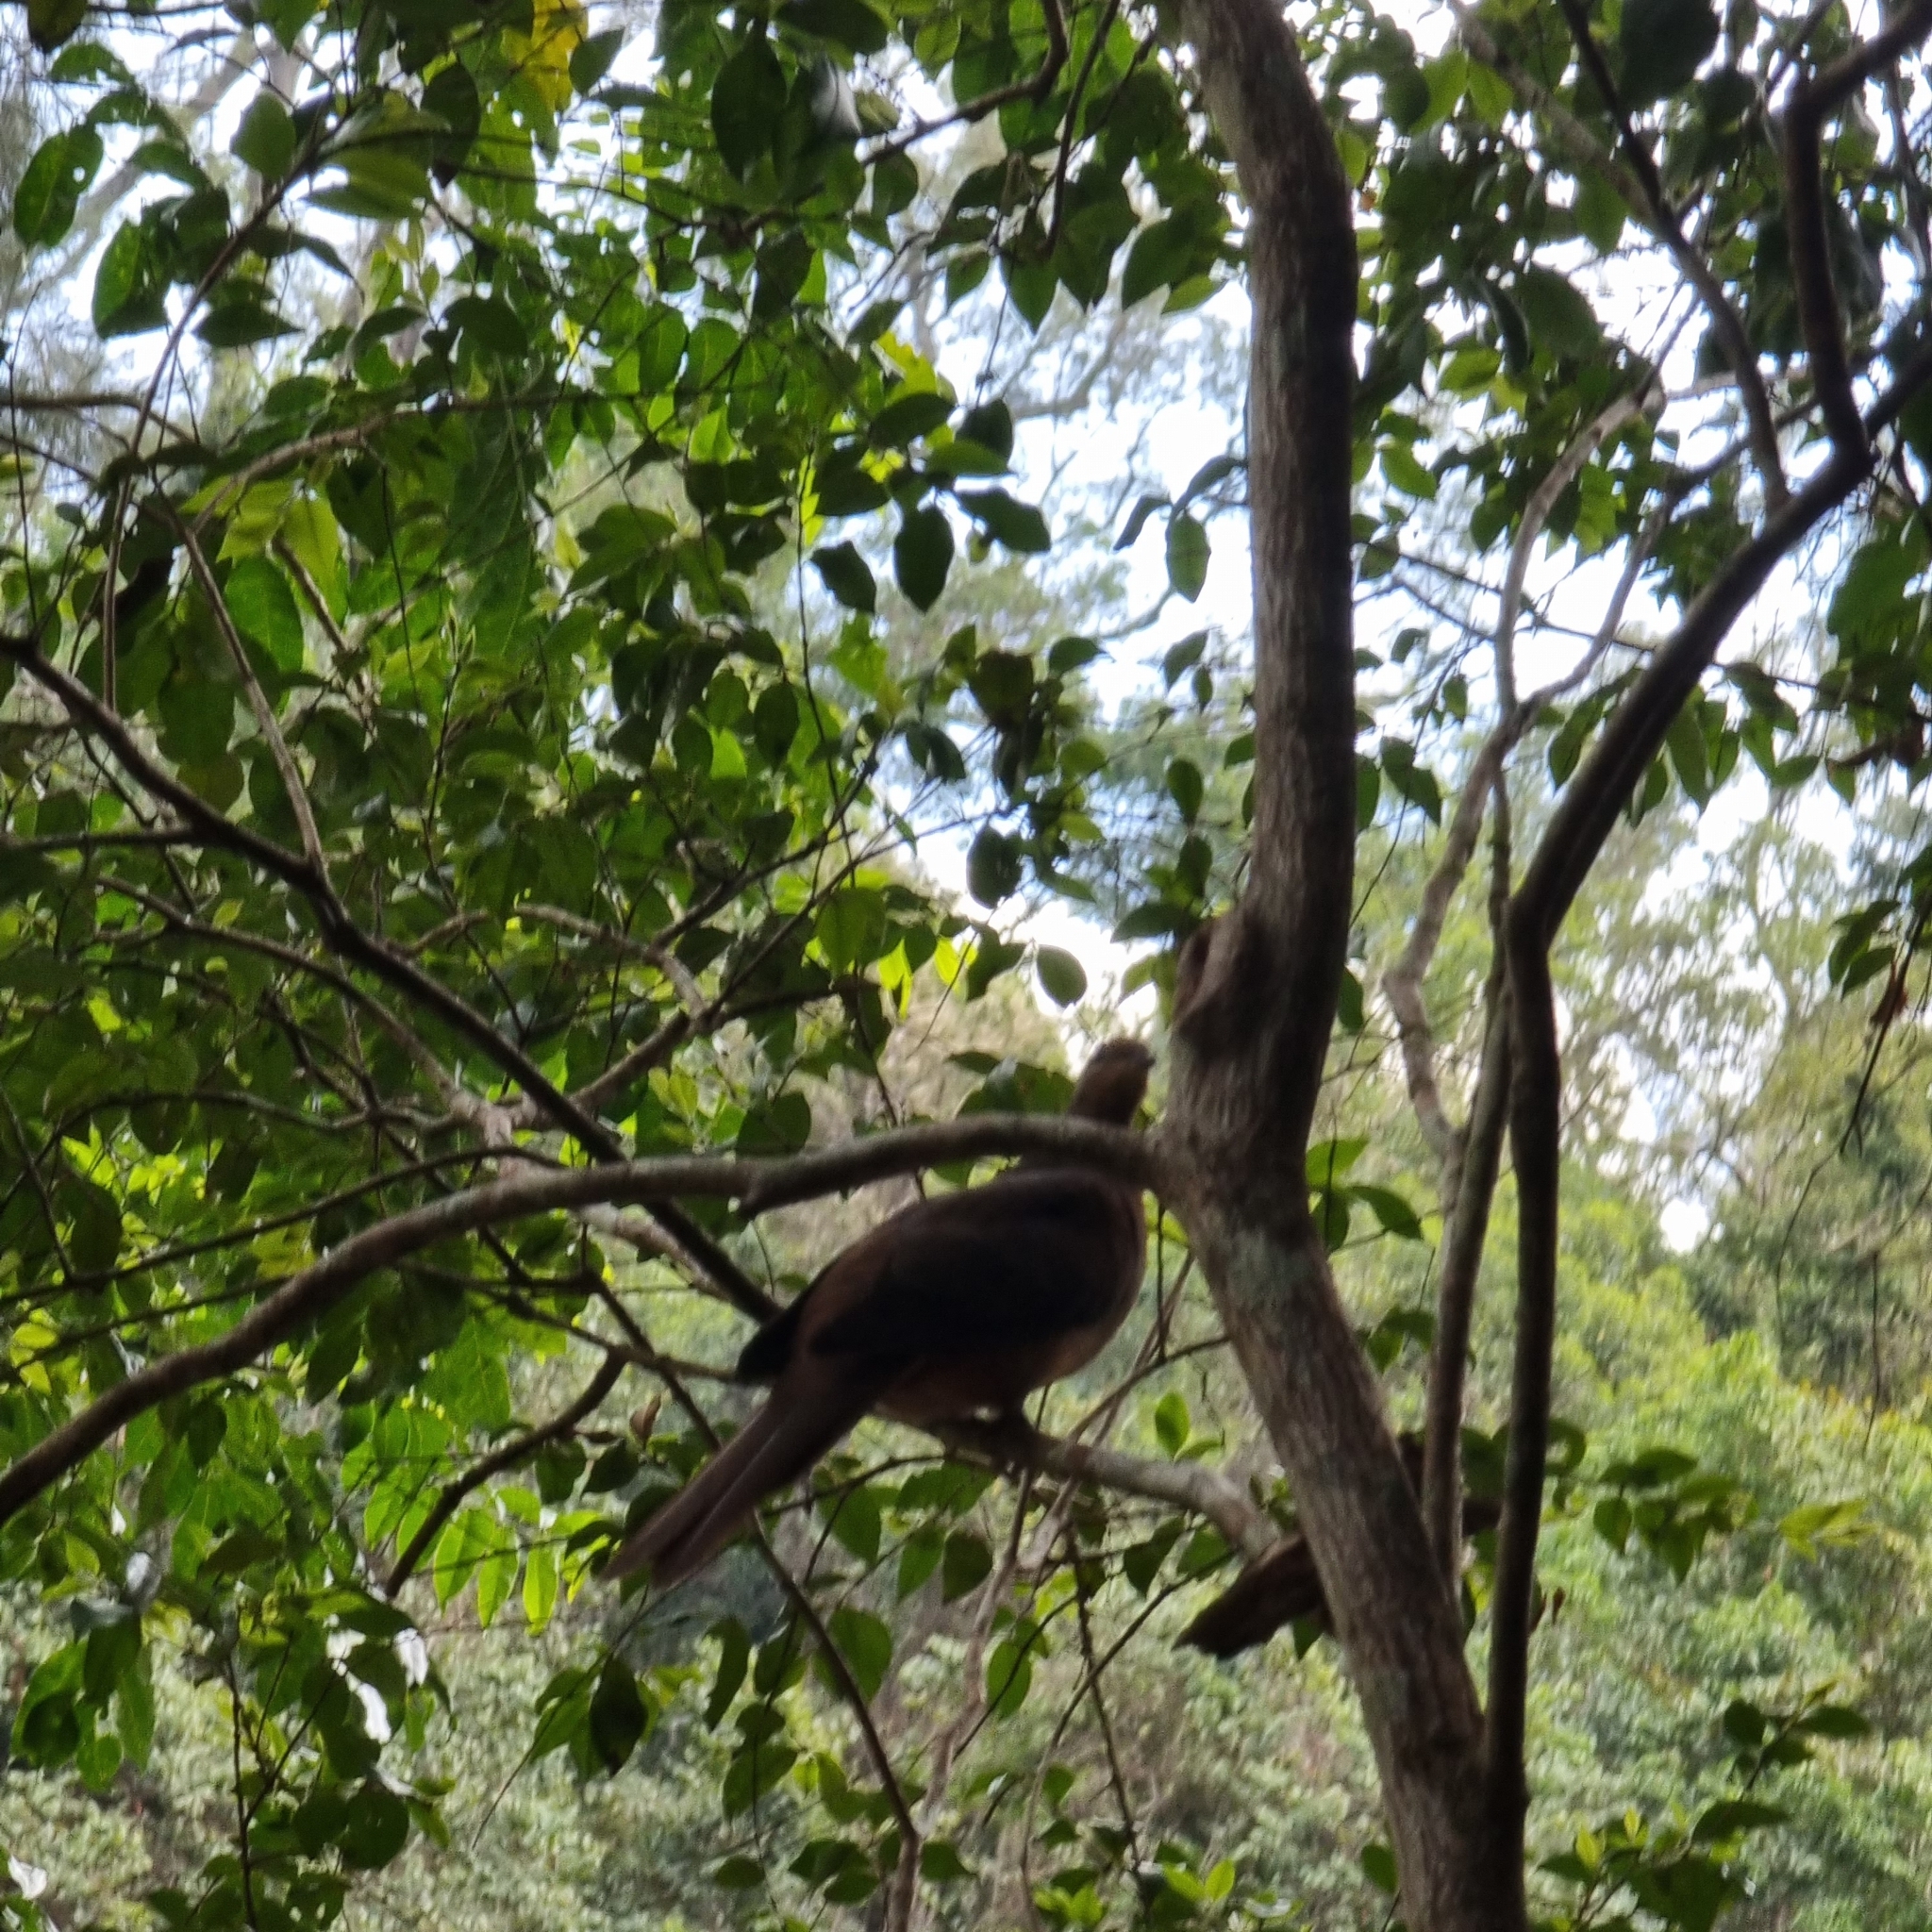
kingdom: Animalia
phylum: Chordata
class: Aves
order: Columbiformes
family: Columbidae
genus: Macropygia
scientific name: Macropygia phasianella
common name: Brown cuckoo-dove
